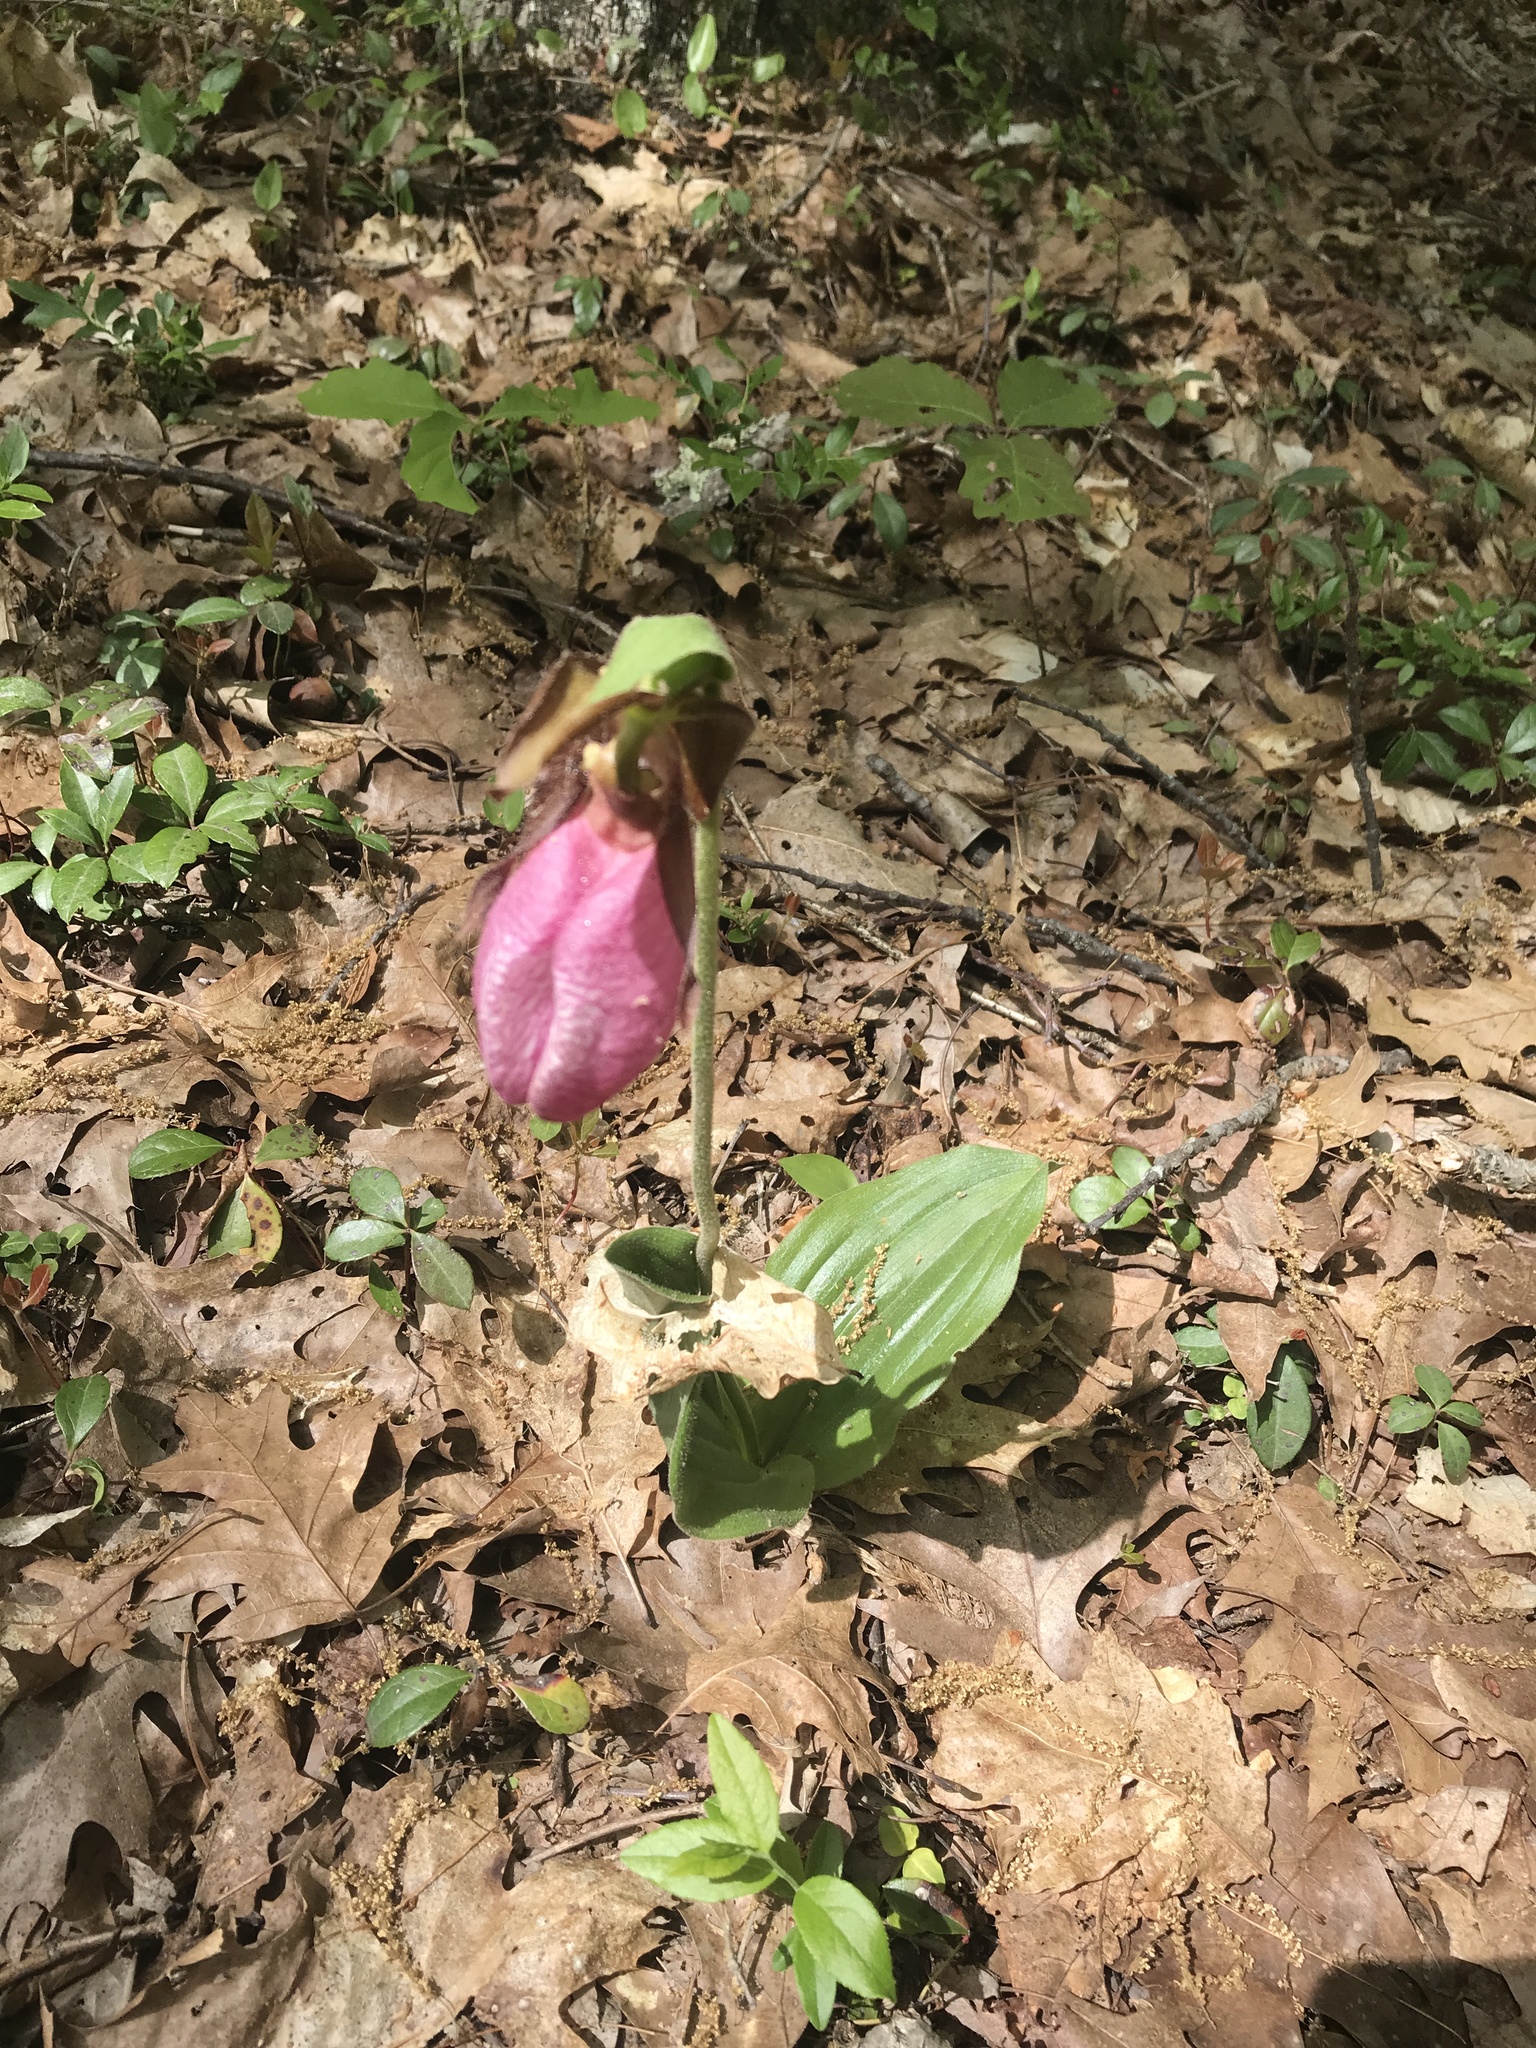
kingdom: Plantae
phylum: Tracheophyta
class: Liliopsida
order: Asparagales
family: Orchidaceae
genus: Cypripedium
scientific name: Cypripedium acaule
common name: Pink lady's-slipper
